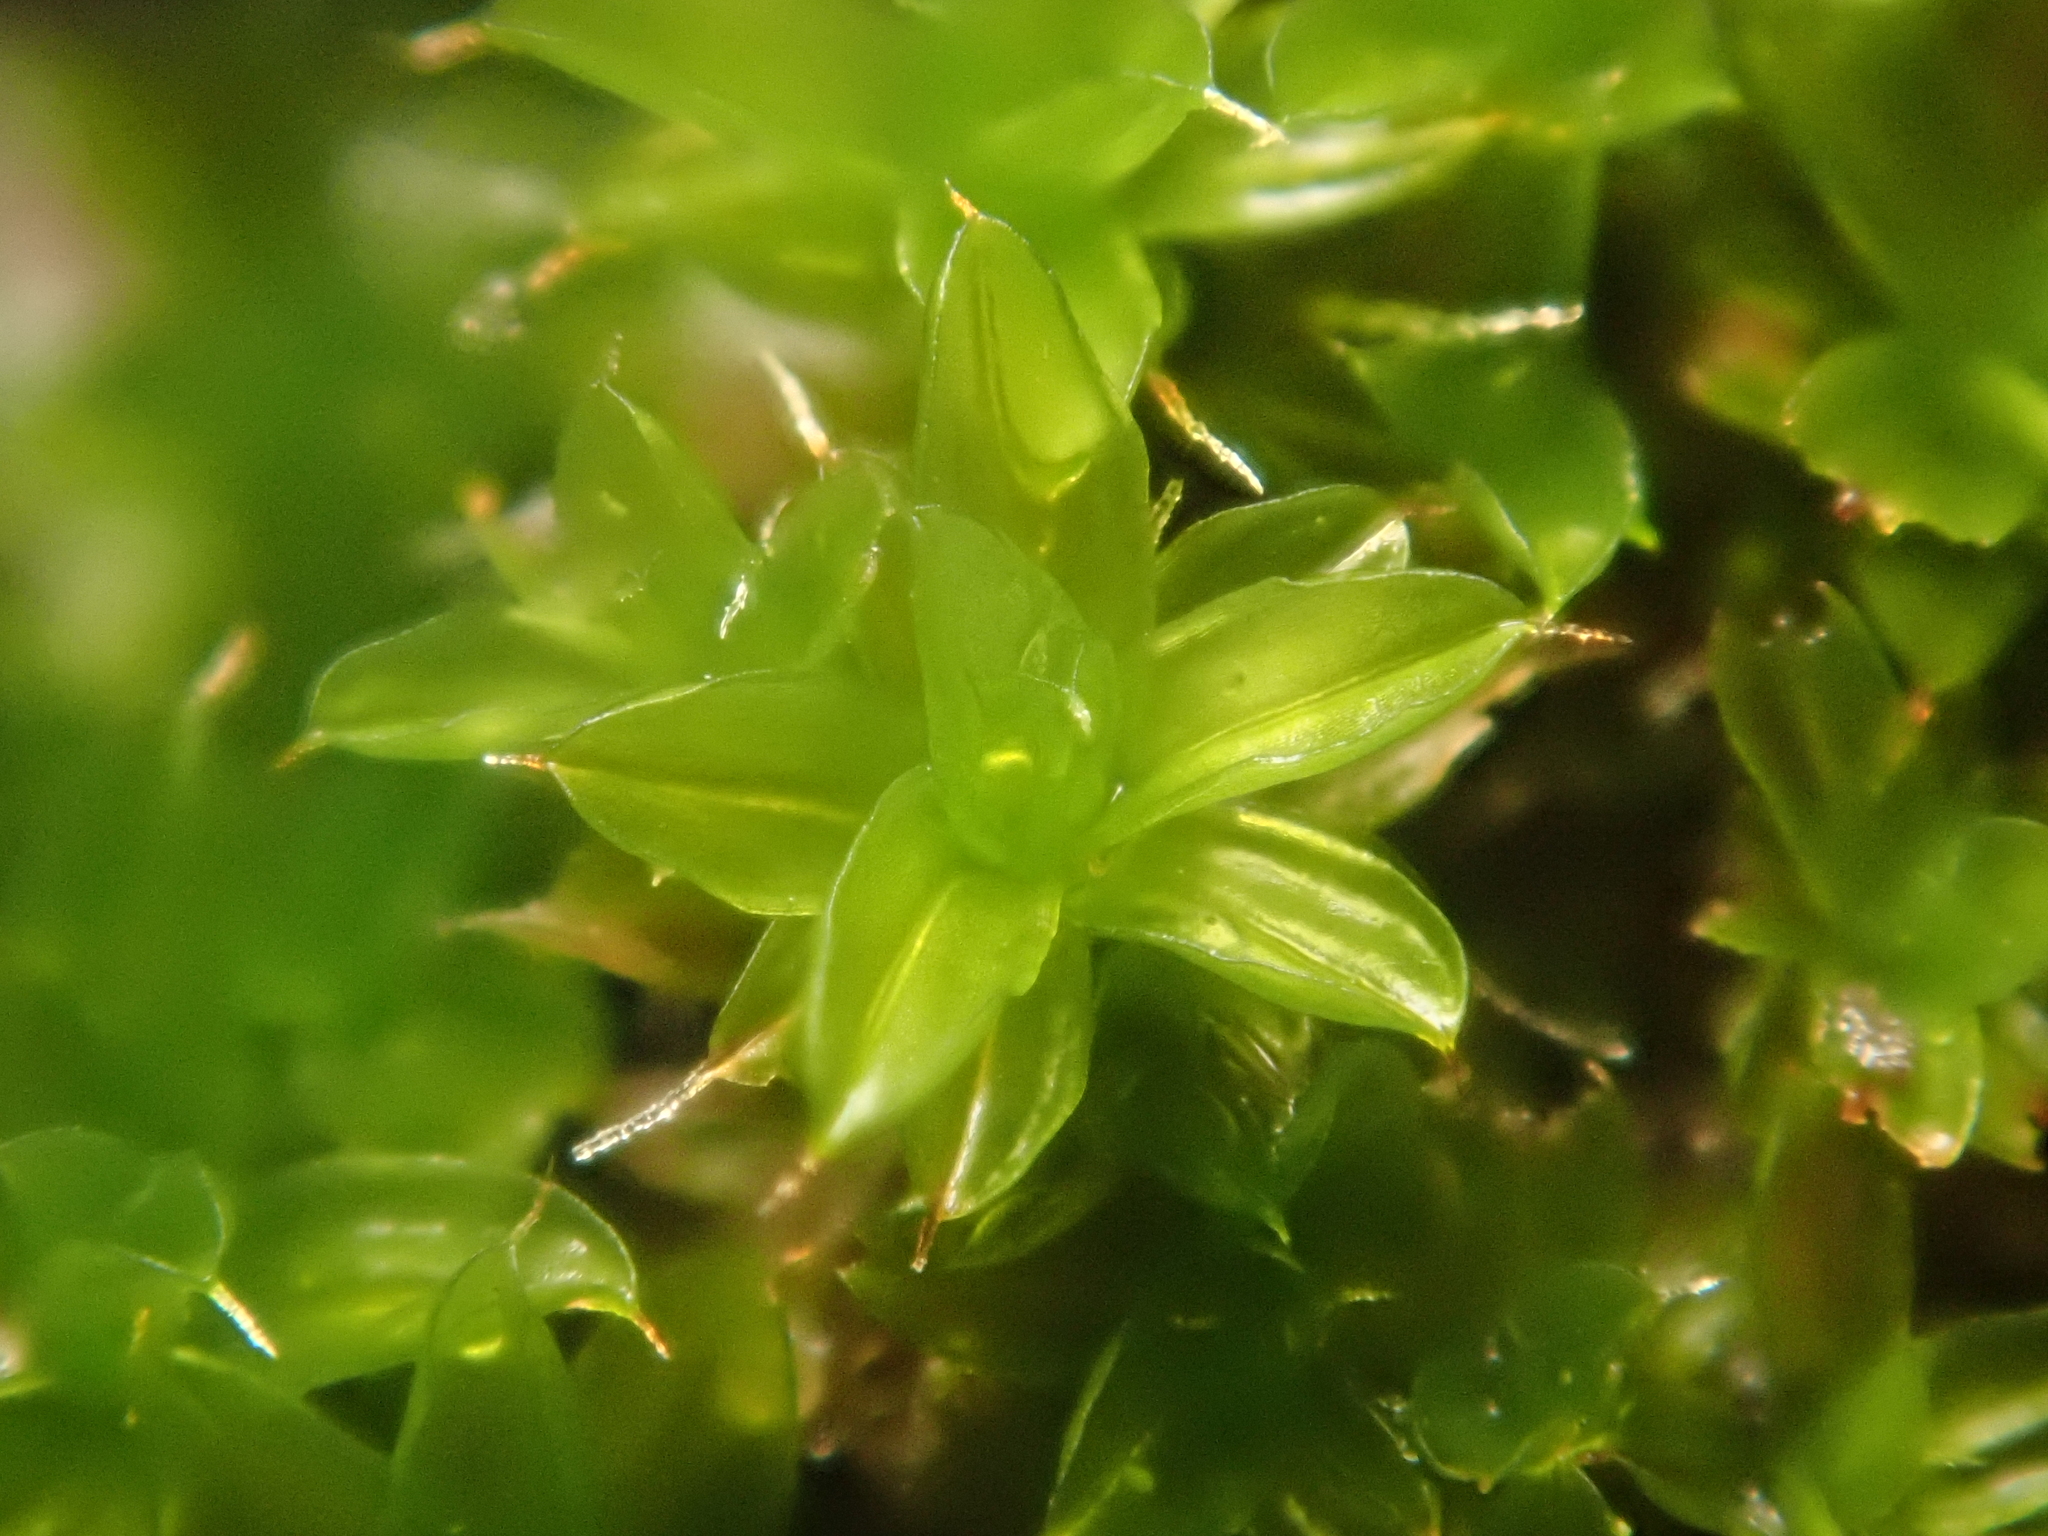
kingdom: Plantae
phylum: Bryophyta
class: Bryopsida
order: Pottiales
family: Pottiaceae
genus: Syntrichia
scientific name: Syntrichia ruralis
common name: Sidewalk screw moss
